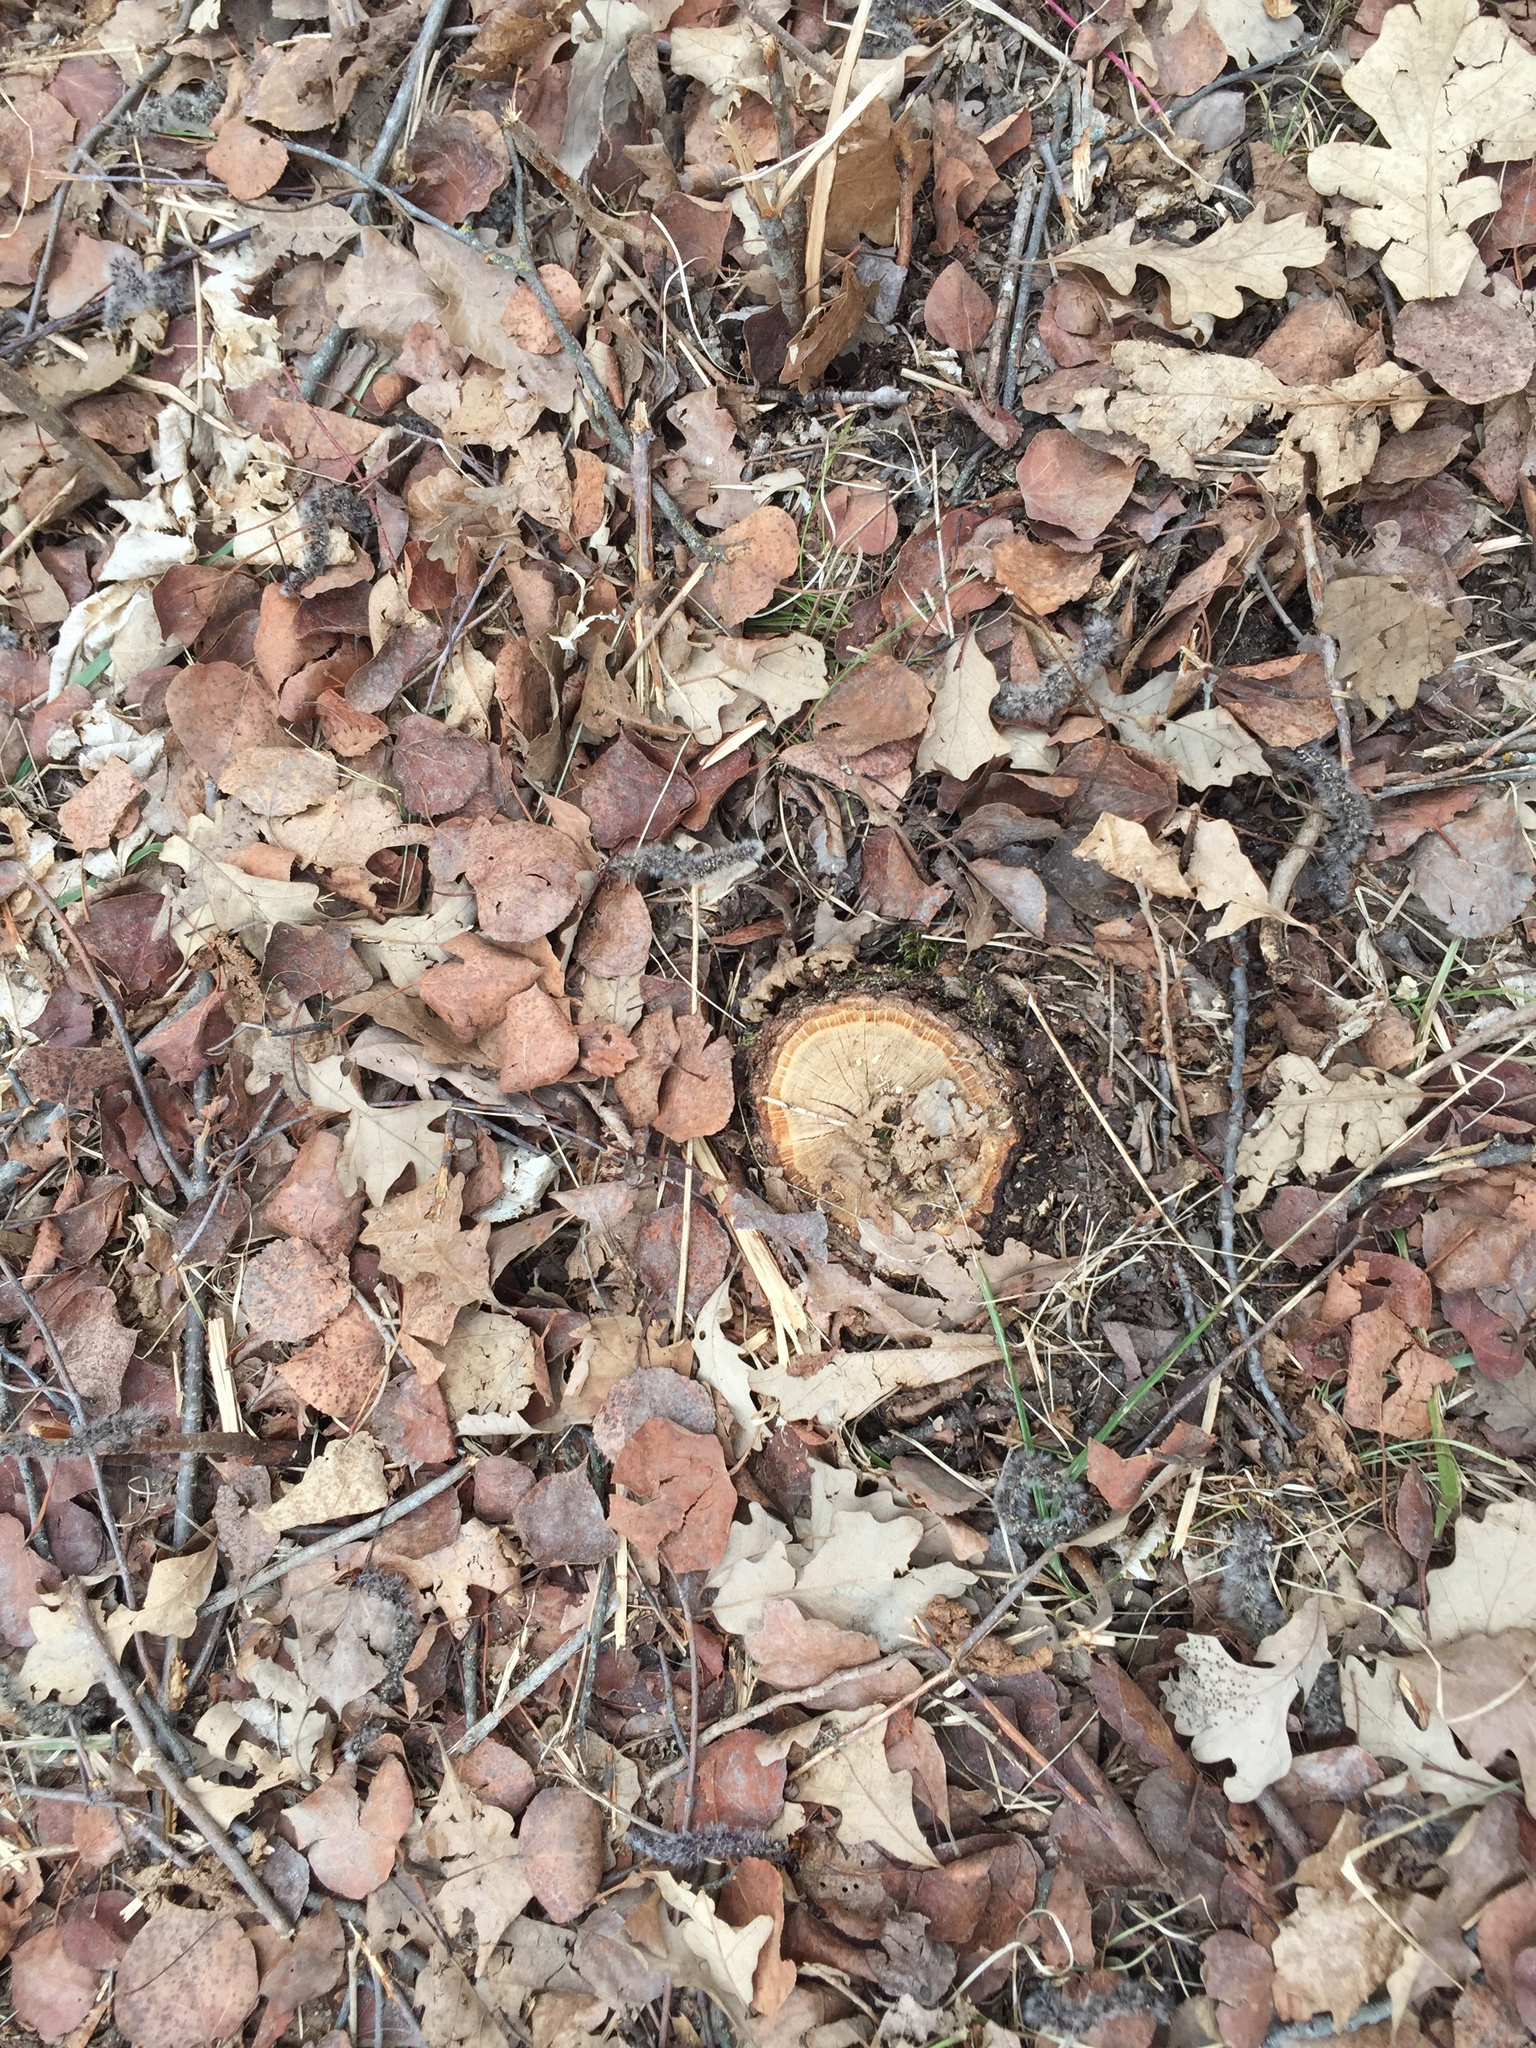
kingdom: Plantae
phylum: Tracheophyta
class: Magnoliopsida
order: Fagales
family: Fagaceae
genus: Quercus
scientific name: Quercus macrocarpa
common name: Bur oak
